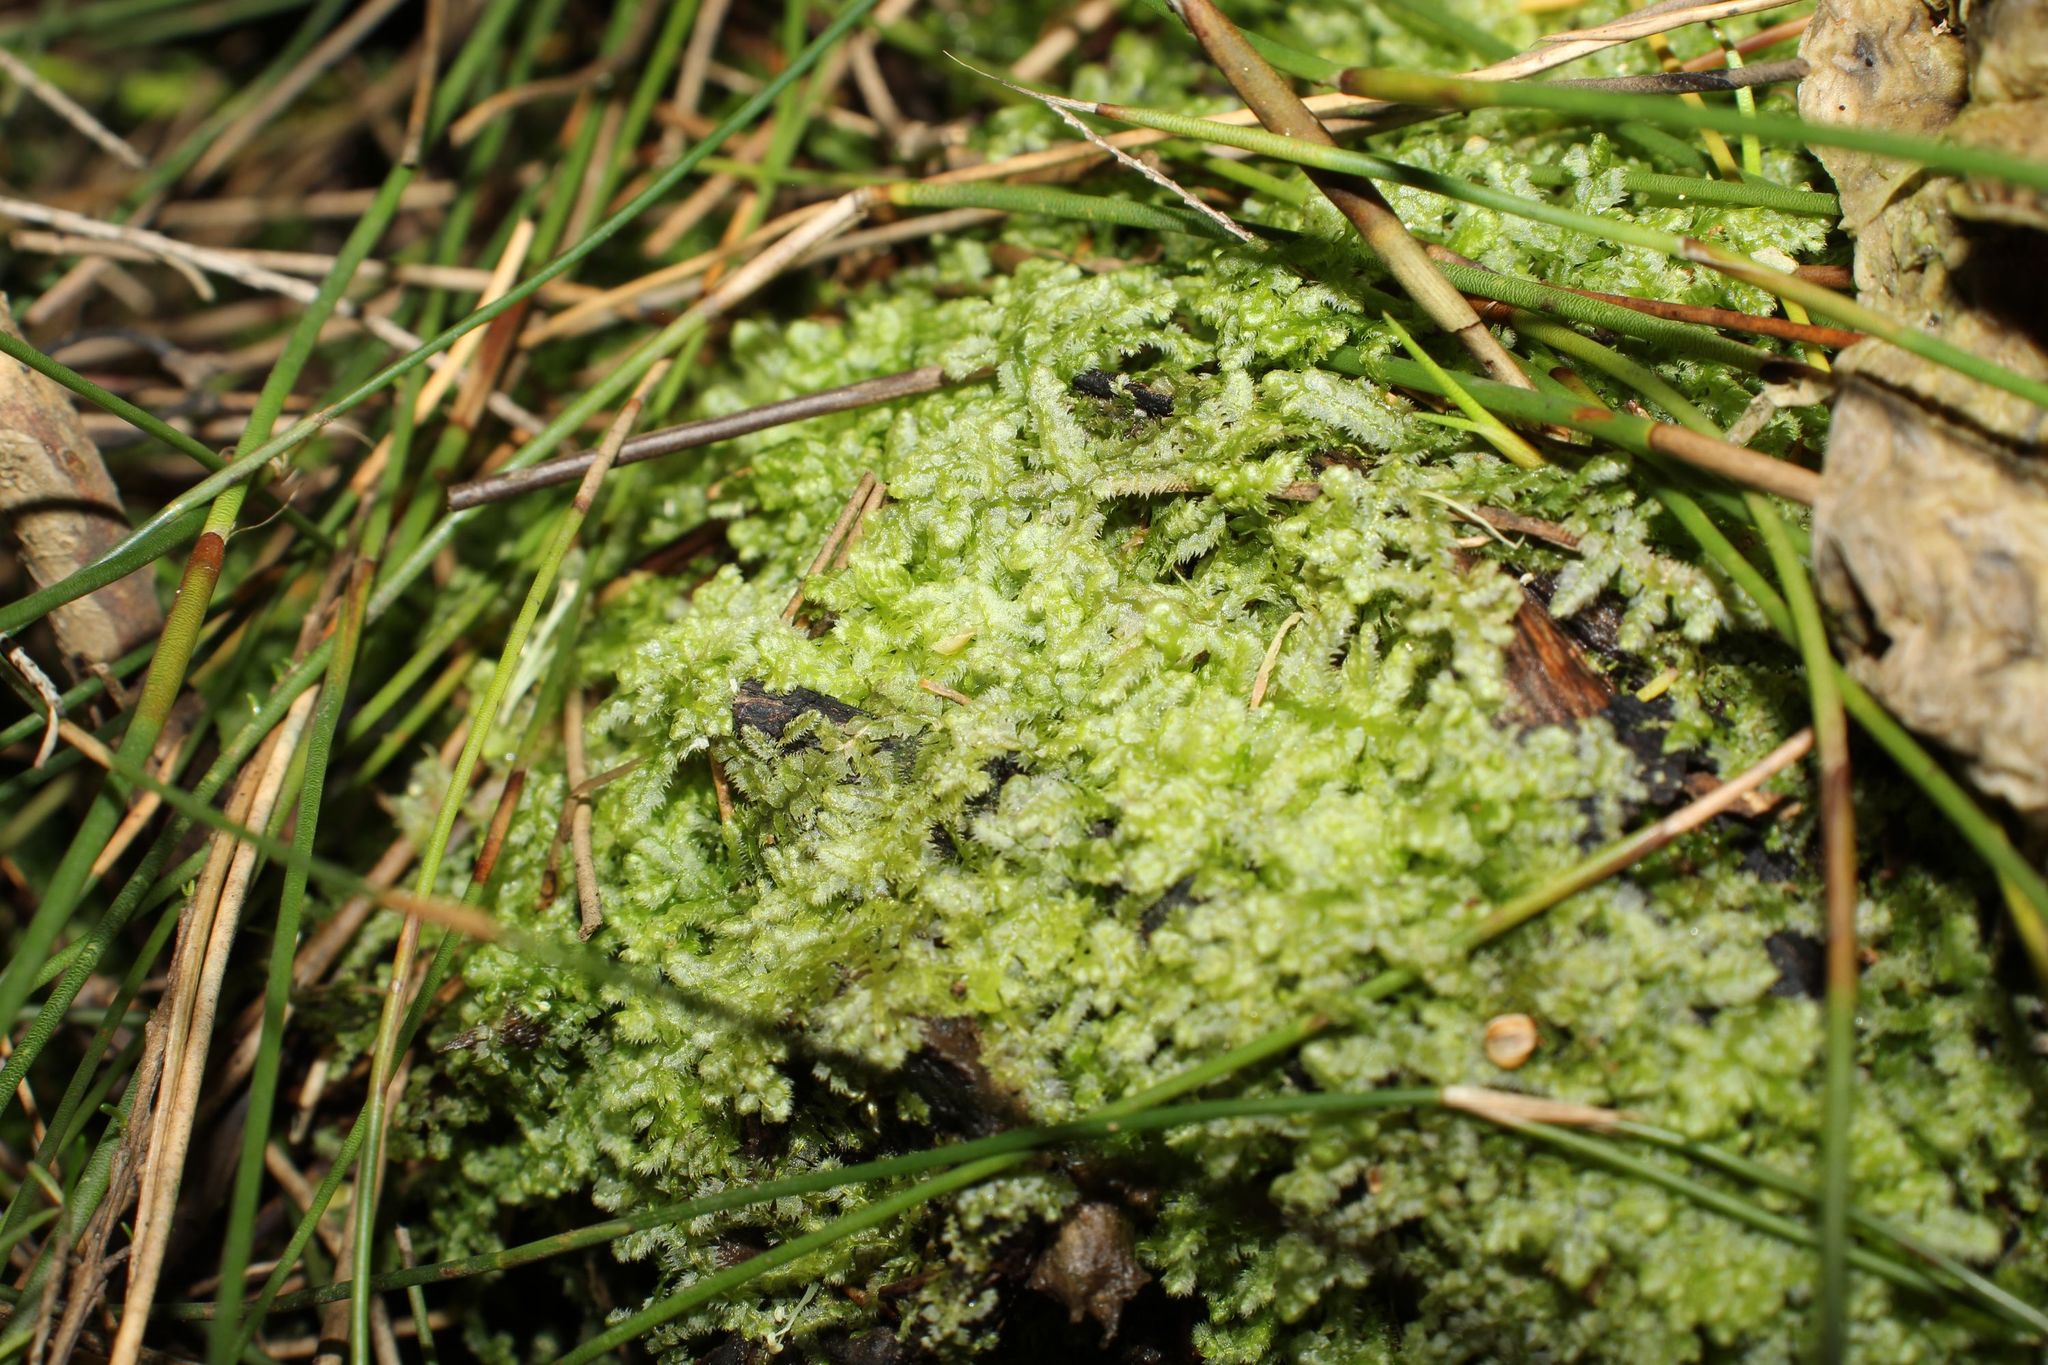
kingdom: Plantae
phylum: Marchantiophyta
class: Jungermanniopsida
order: Jungermanniales
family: Lepidoziaceae
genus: Ceramanus
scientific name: Ceramanus clatritexta
